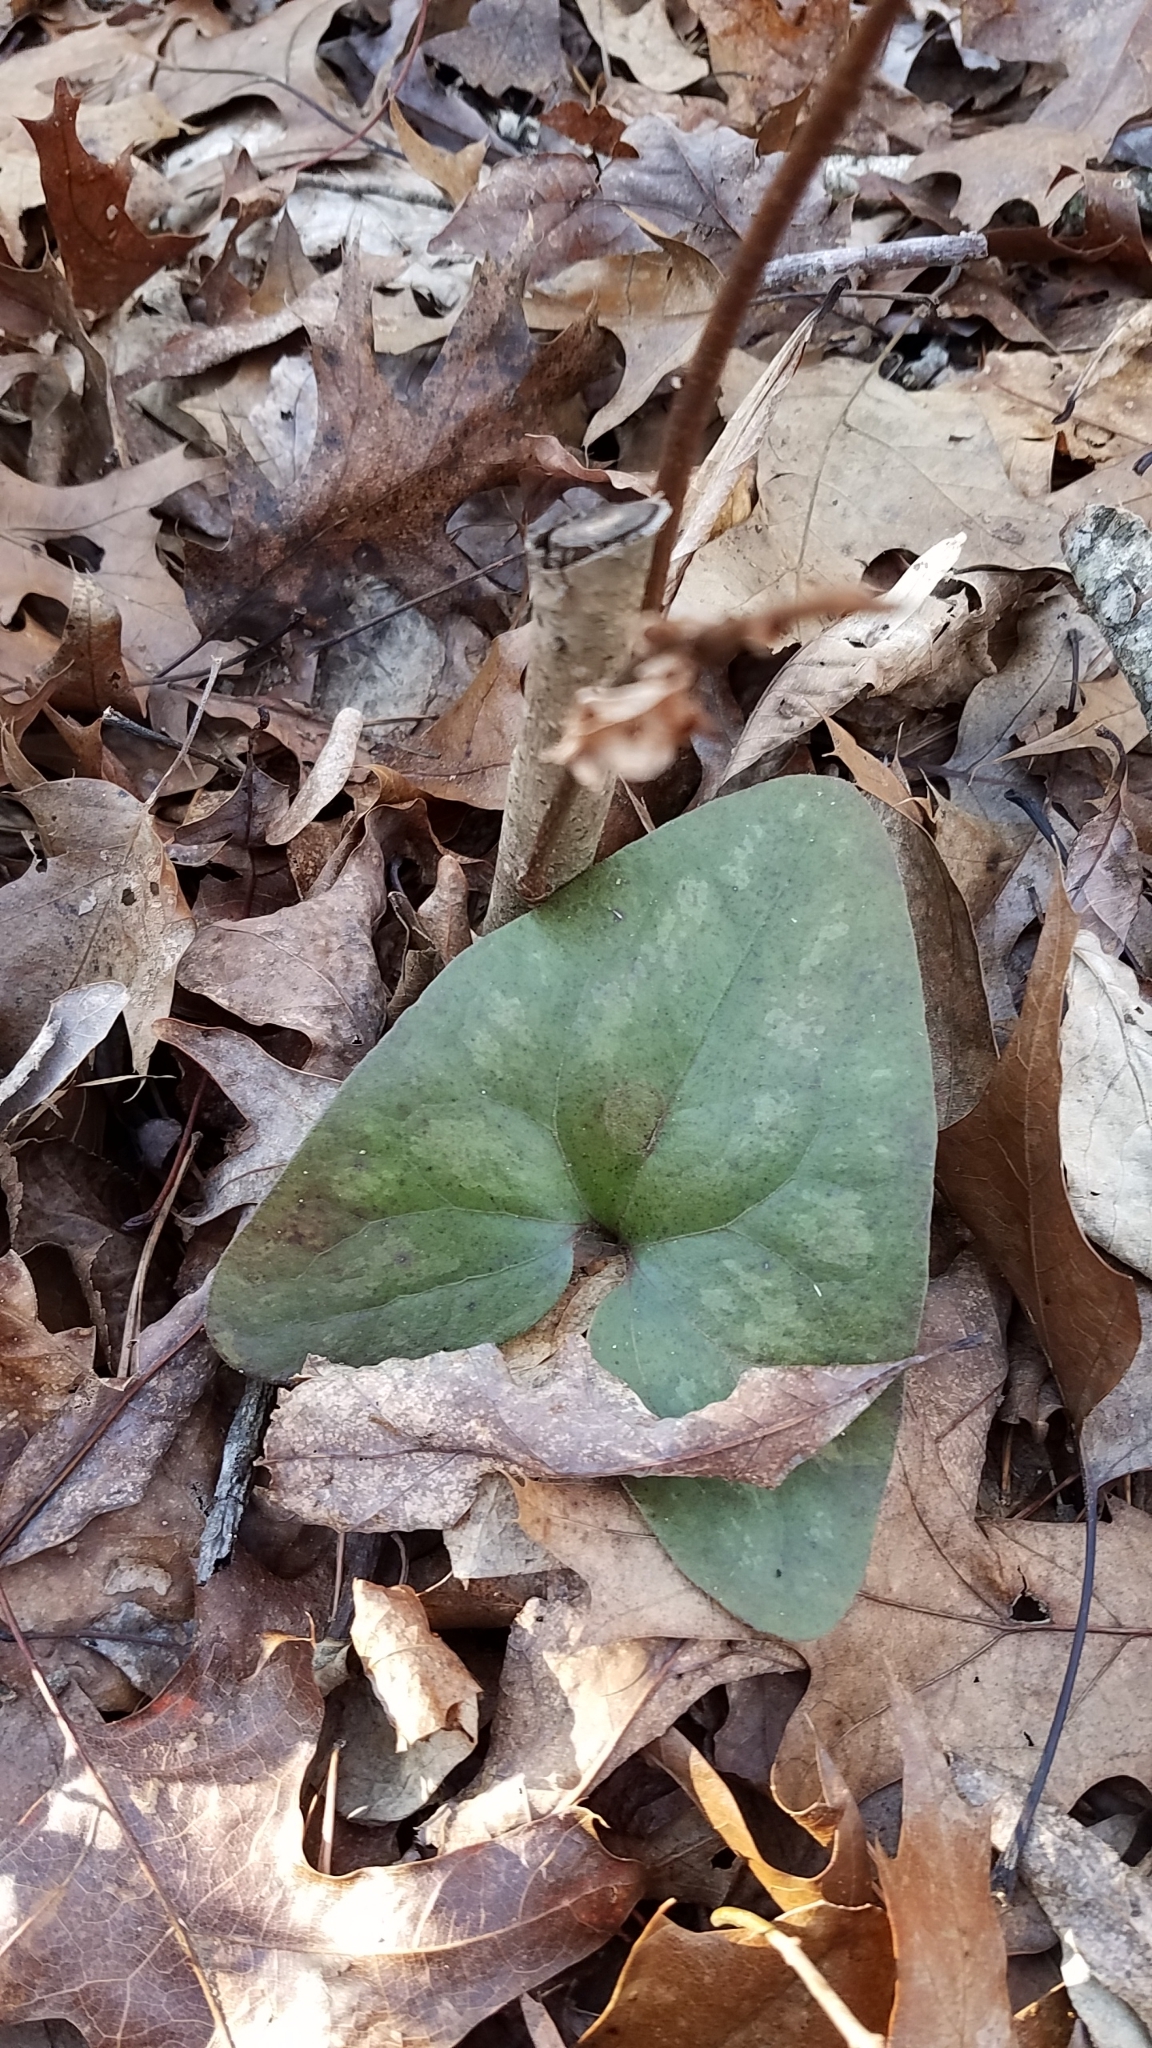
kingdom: Plantae
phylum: Tracheophyta
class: Magnoliopsida
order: Piperales
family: Aristolochiaceae
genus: Hexastylis
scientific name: Hexastylis arifolia
